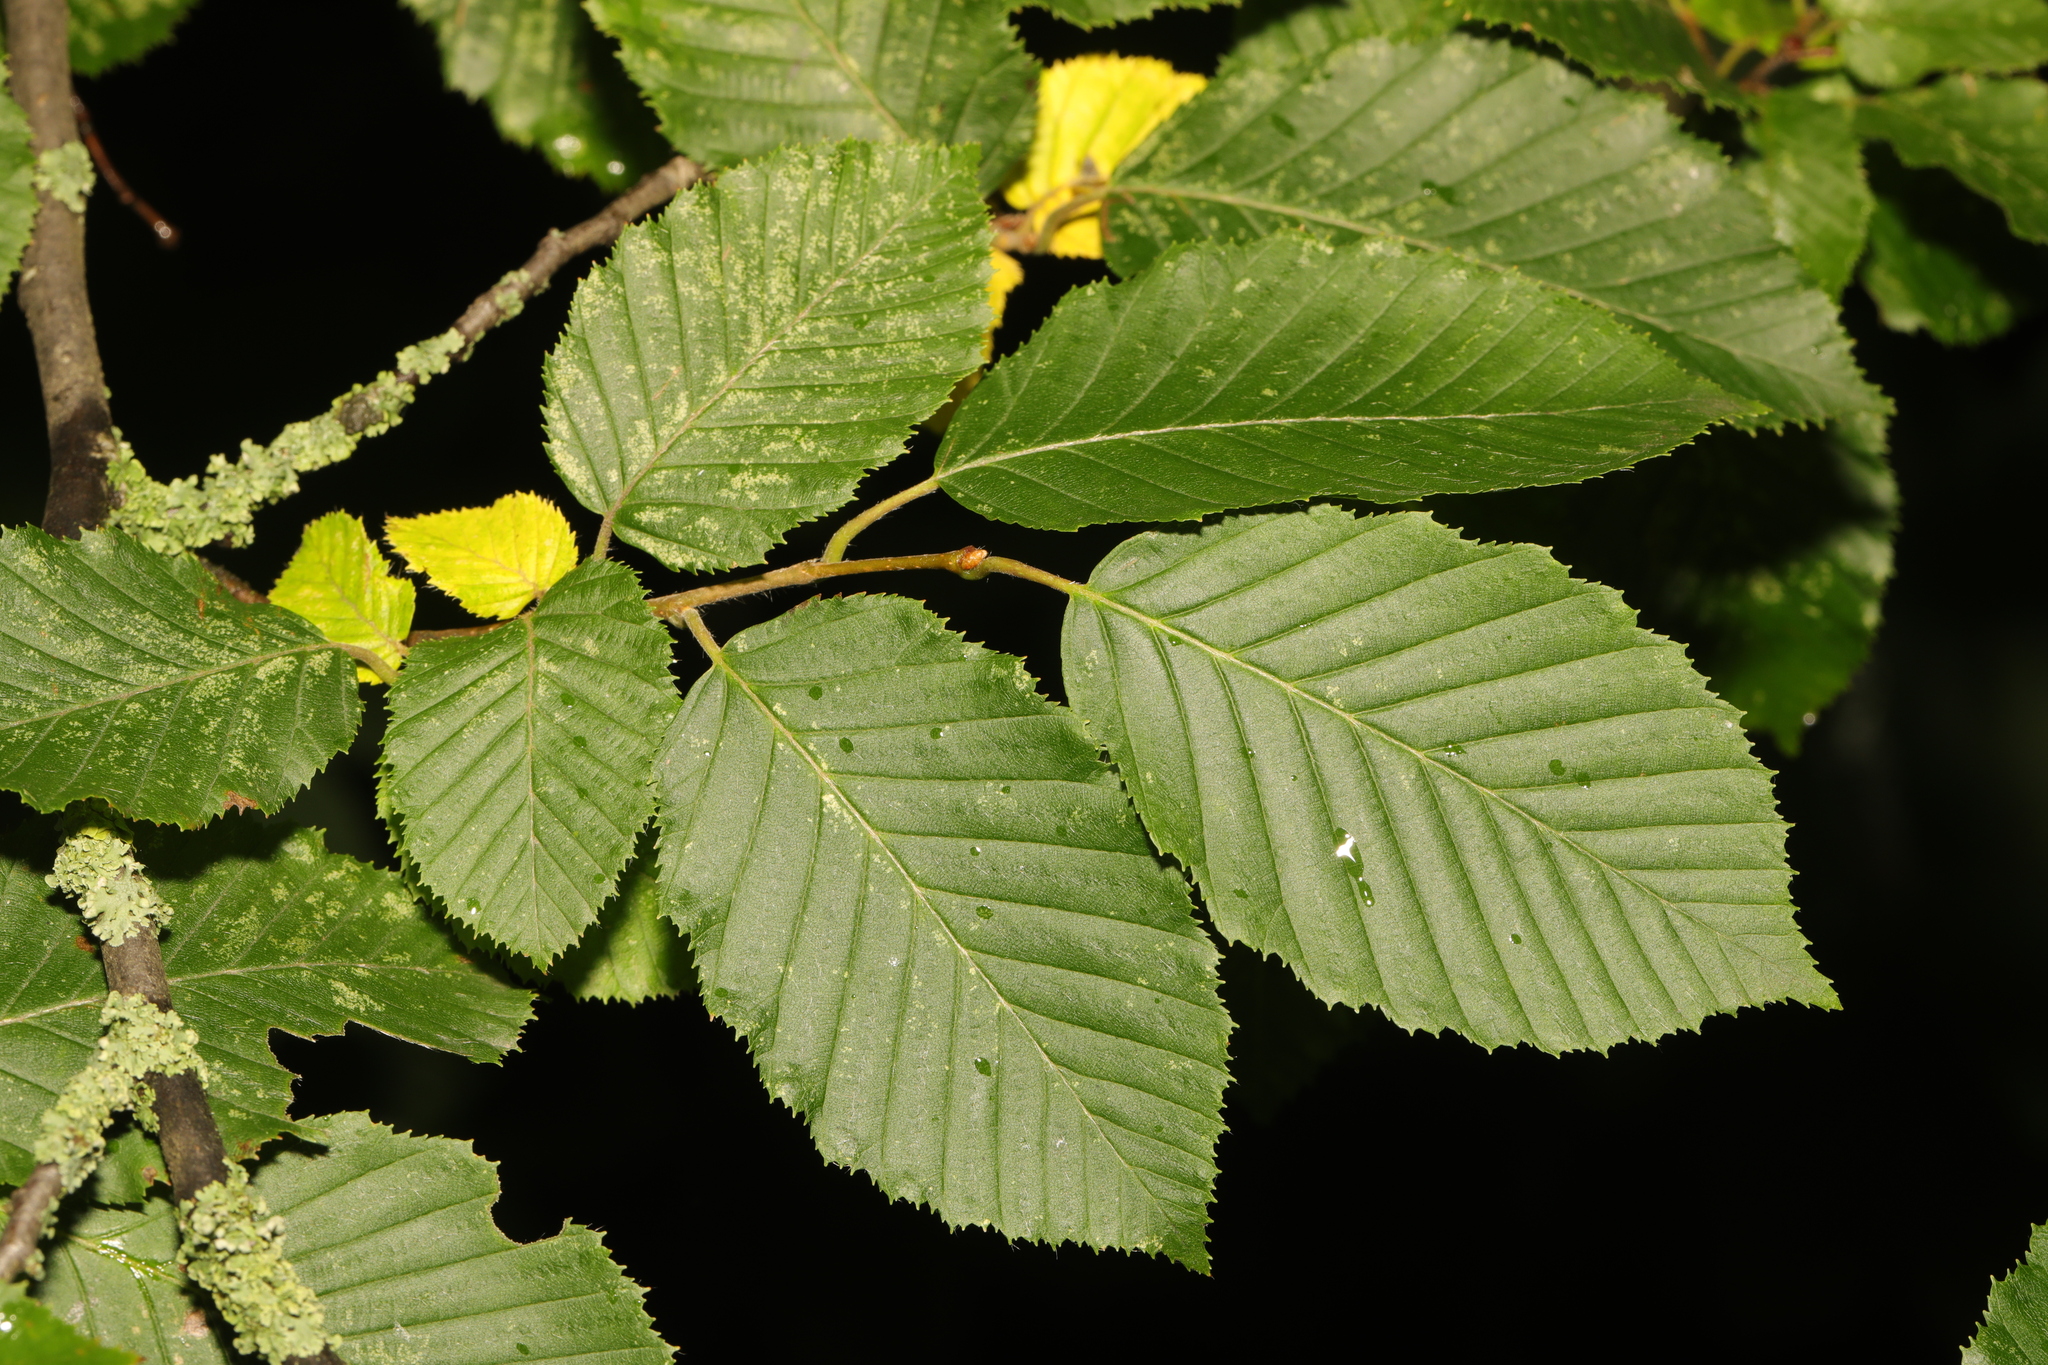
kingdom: Plantae
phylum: Tracheophyta
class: Magnoliopsida
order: Fagales
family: Betulaceae
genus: Carpinus
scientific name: Carpinus betulus
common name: Hornbeam
